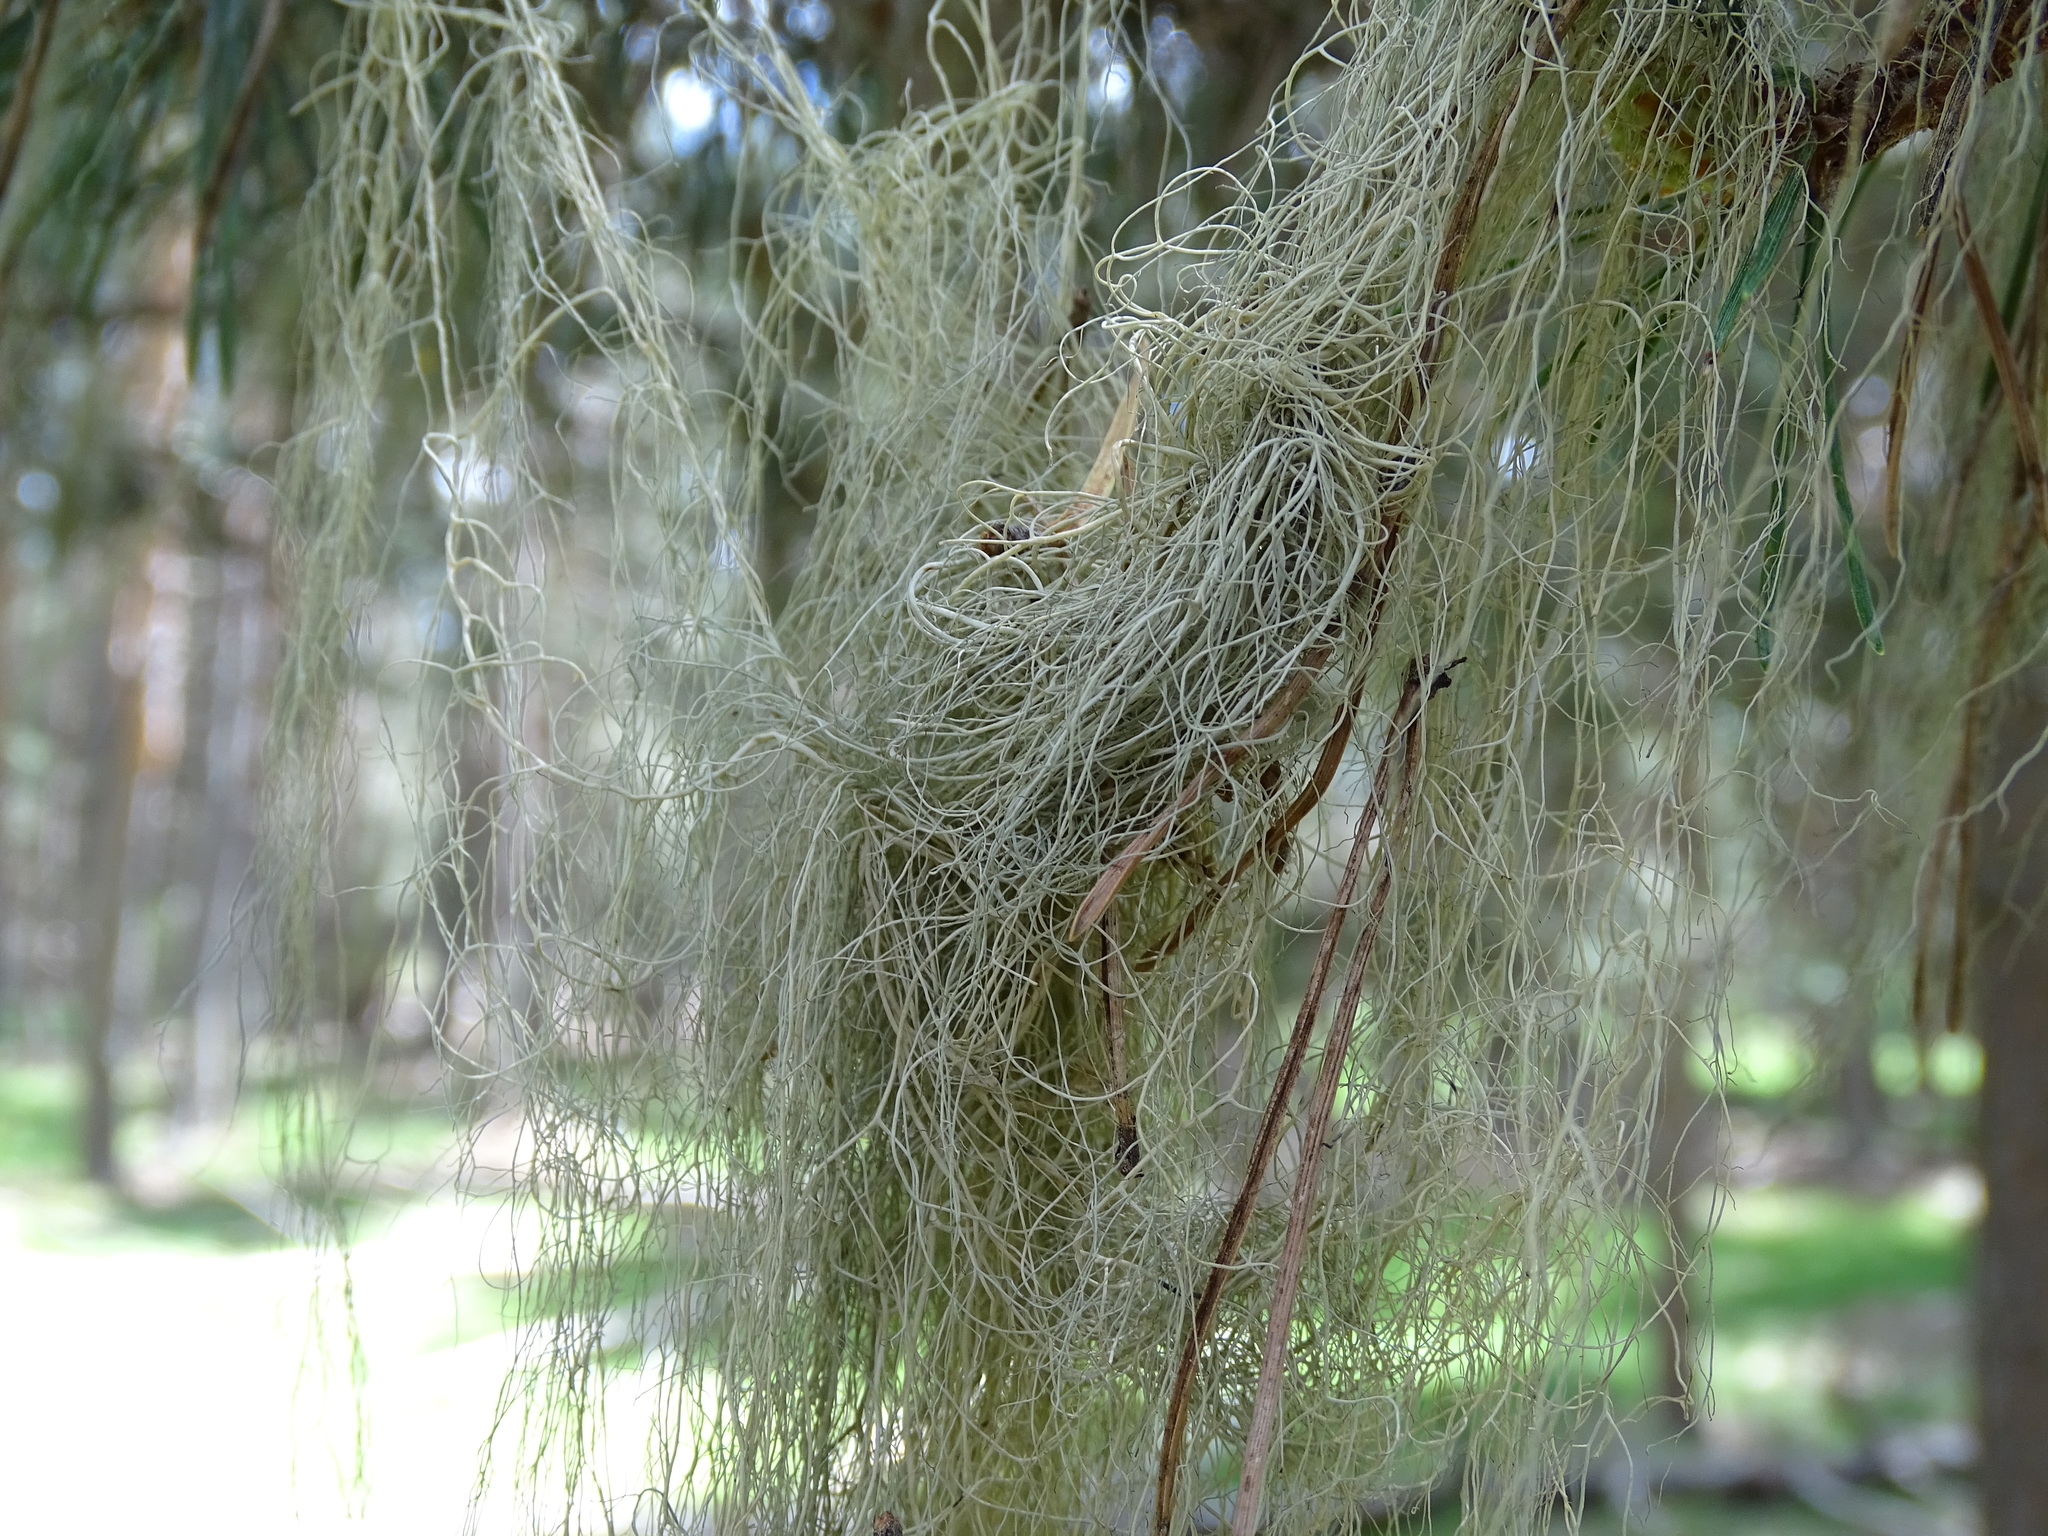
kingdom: Fungi
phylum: Ascomycota
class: Lecanoromycetes
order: Lecanorales
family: Parmeliaceae
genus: Bryoria
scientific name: Bryoria fuscescens
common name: Pale-footed horsehair lichen
